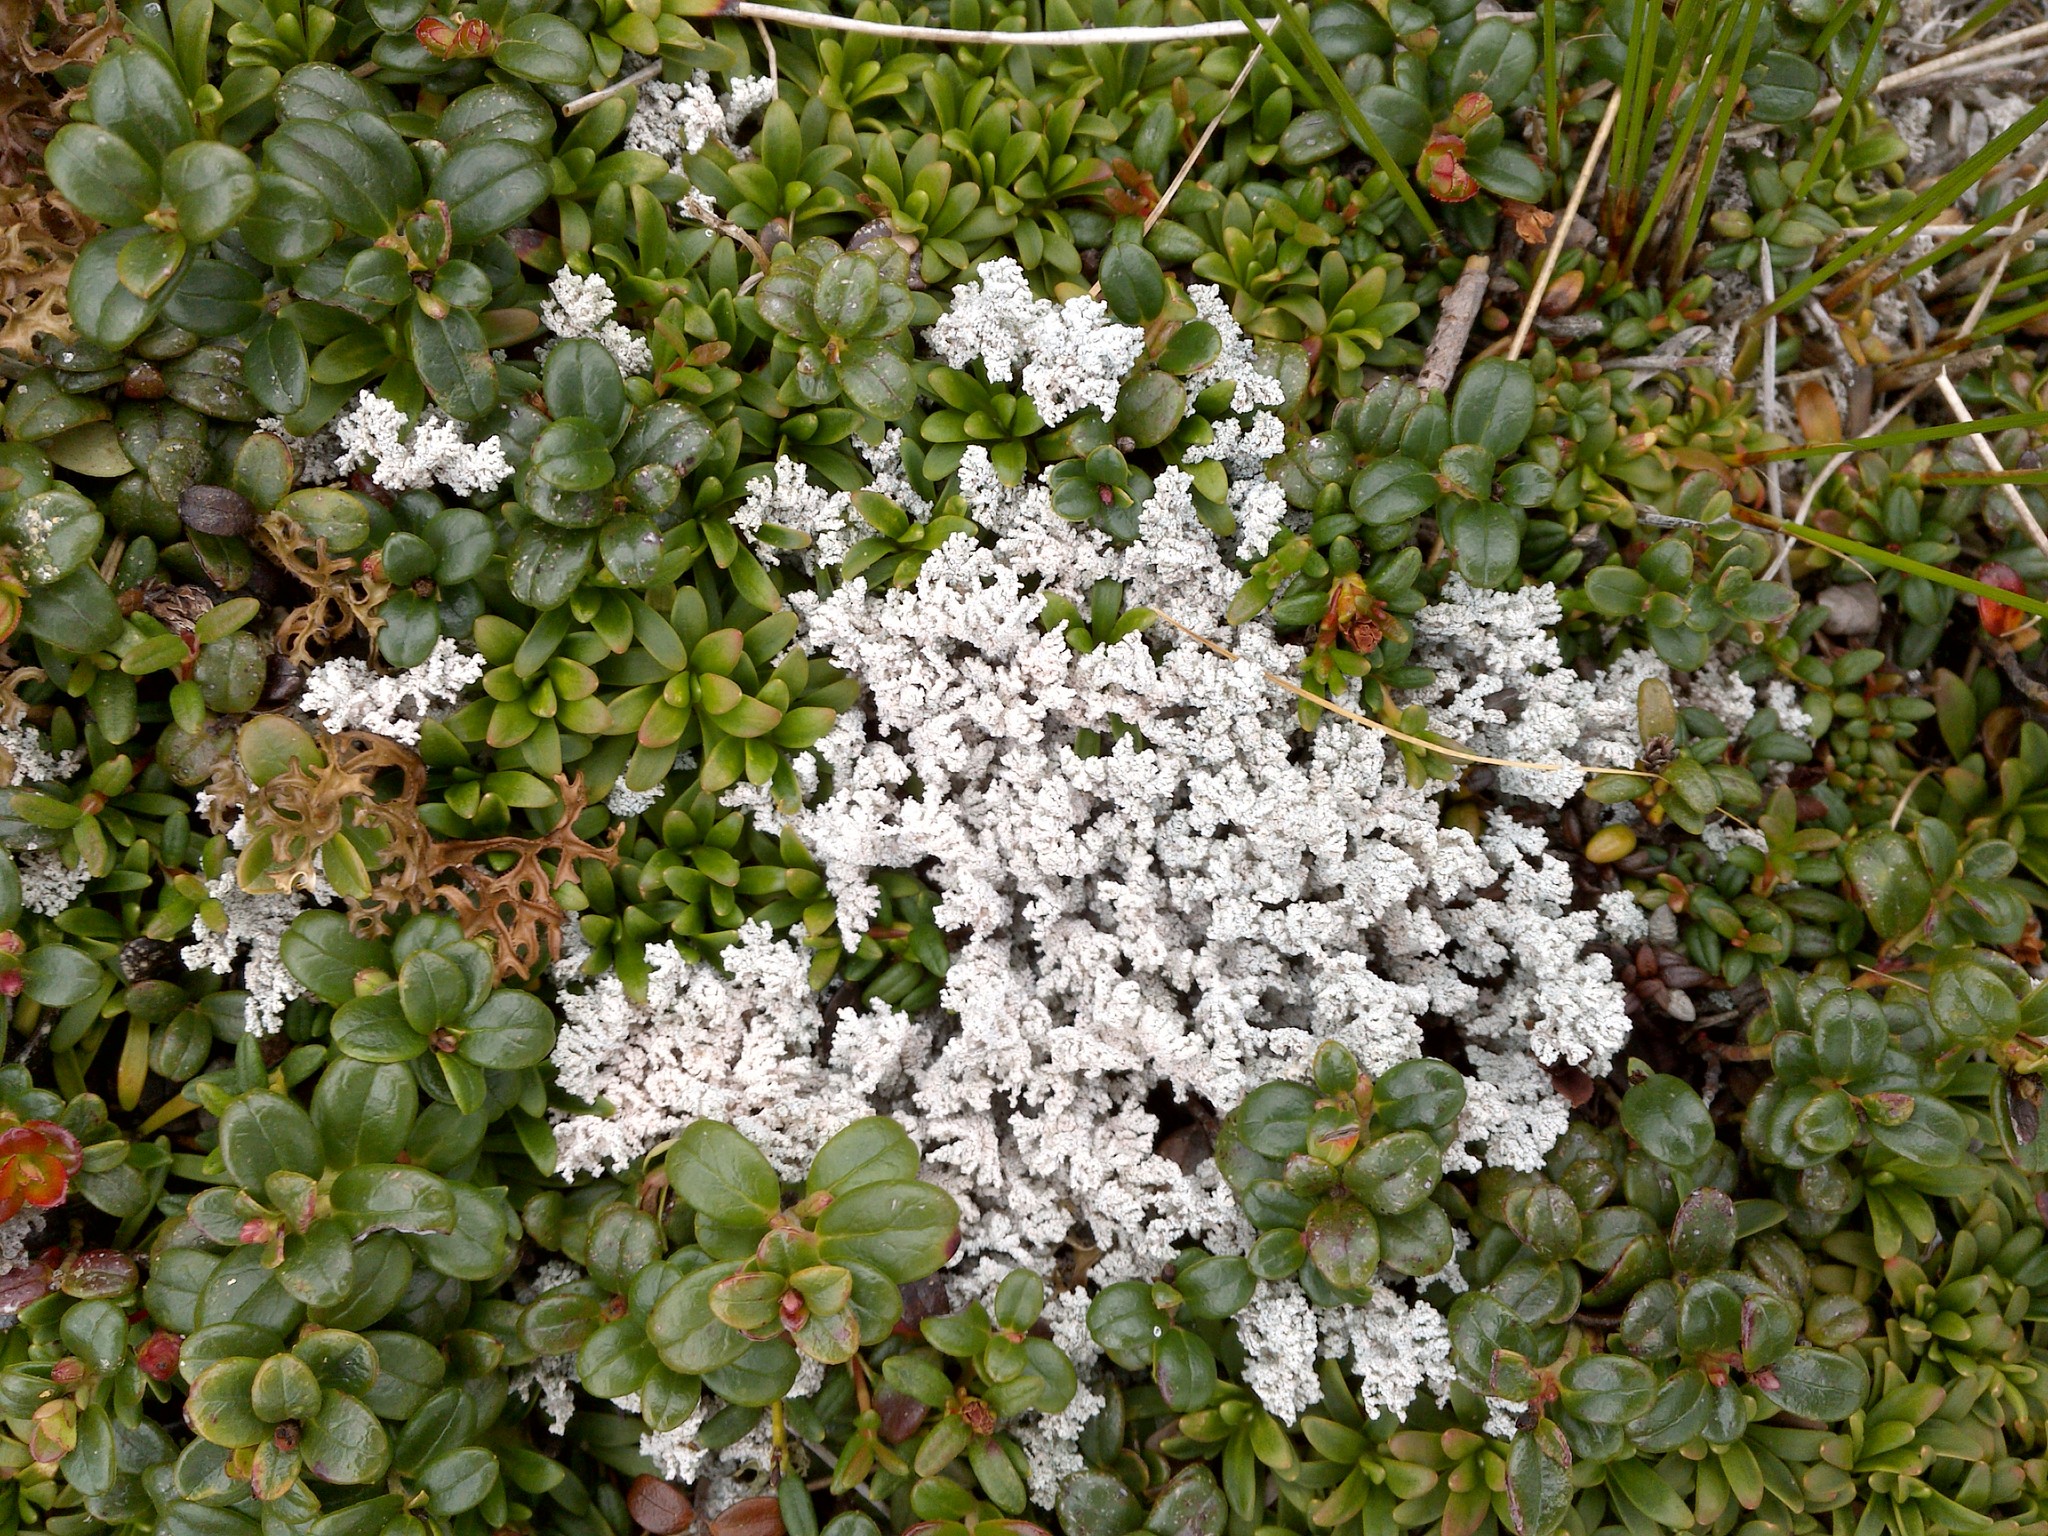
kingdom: Fungi
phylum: Ascomycota
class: Lecanoromycetes
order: Lecanorales
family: Stereocaulaceae
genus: Stereocaulon
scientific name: Stereocaulon alpinum
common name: Alpine foam lichen
